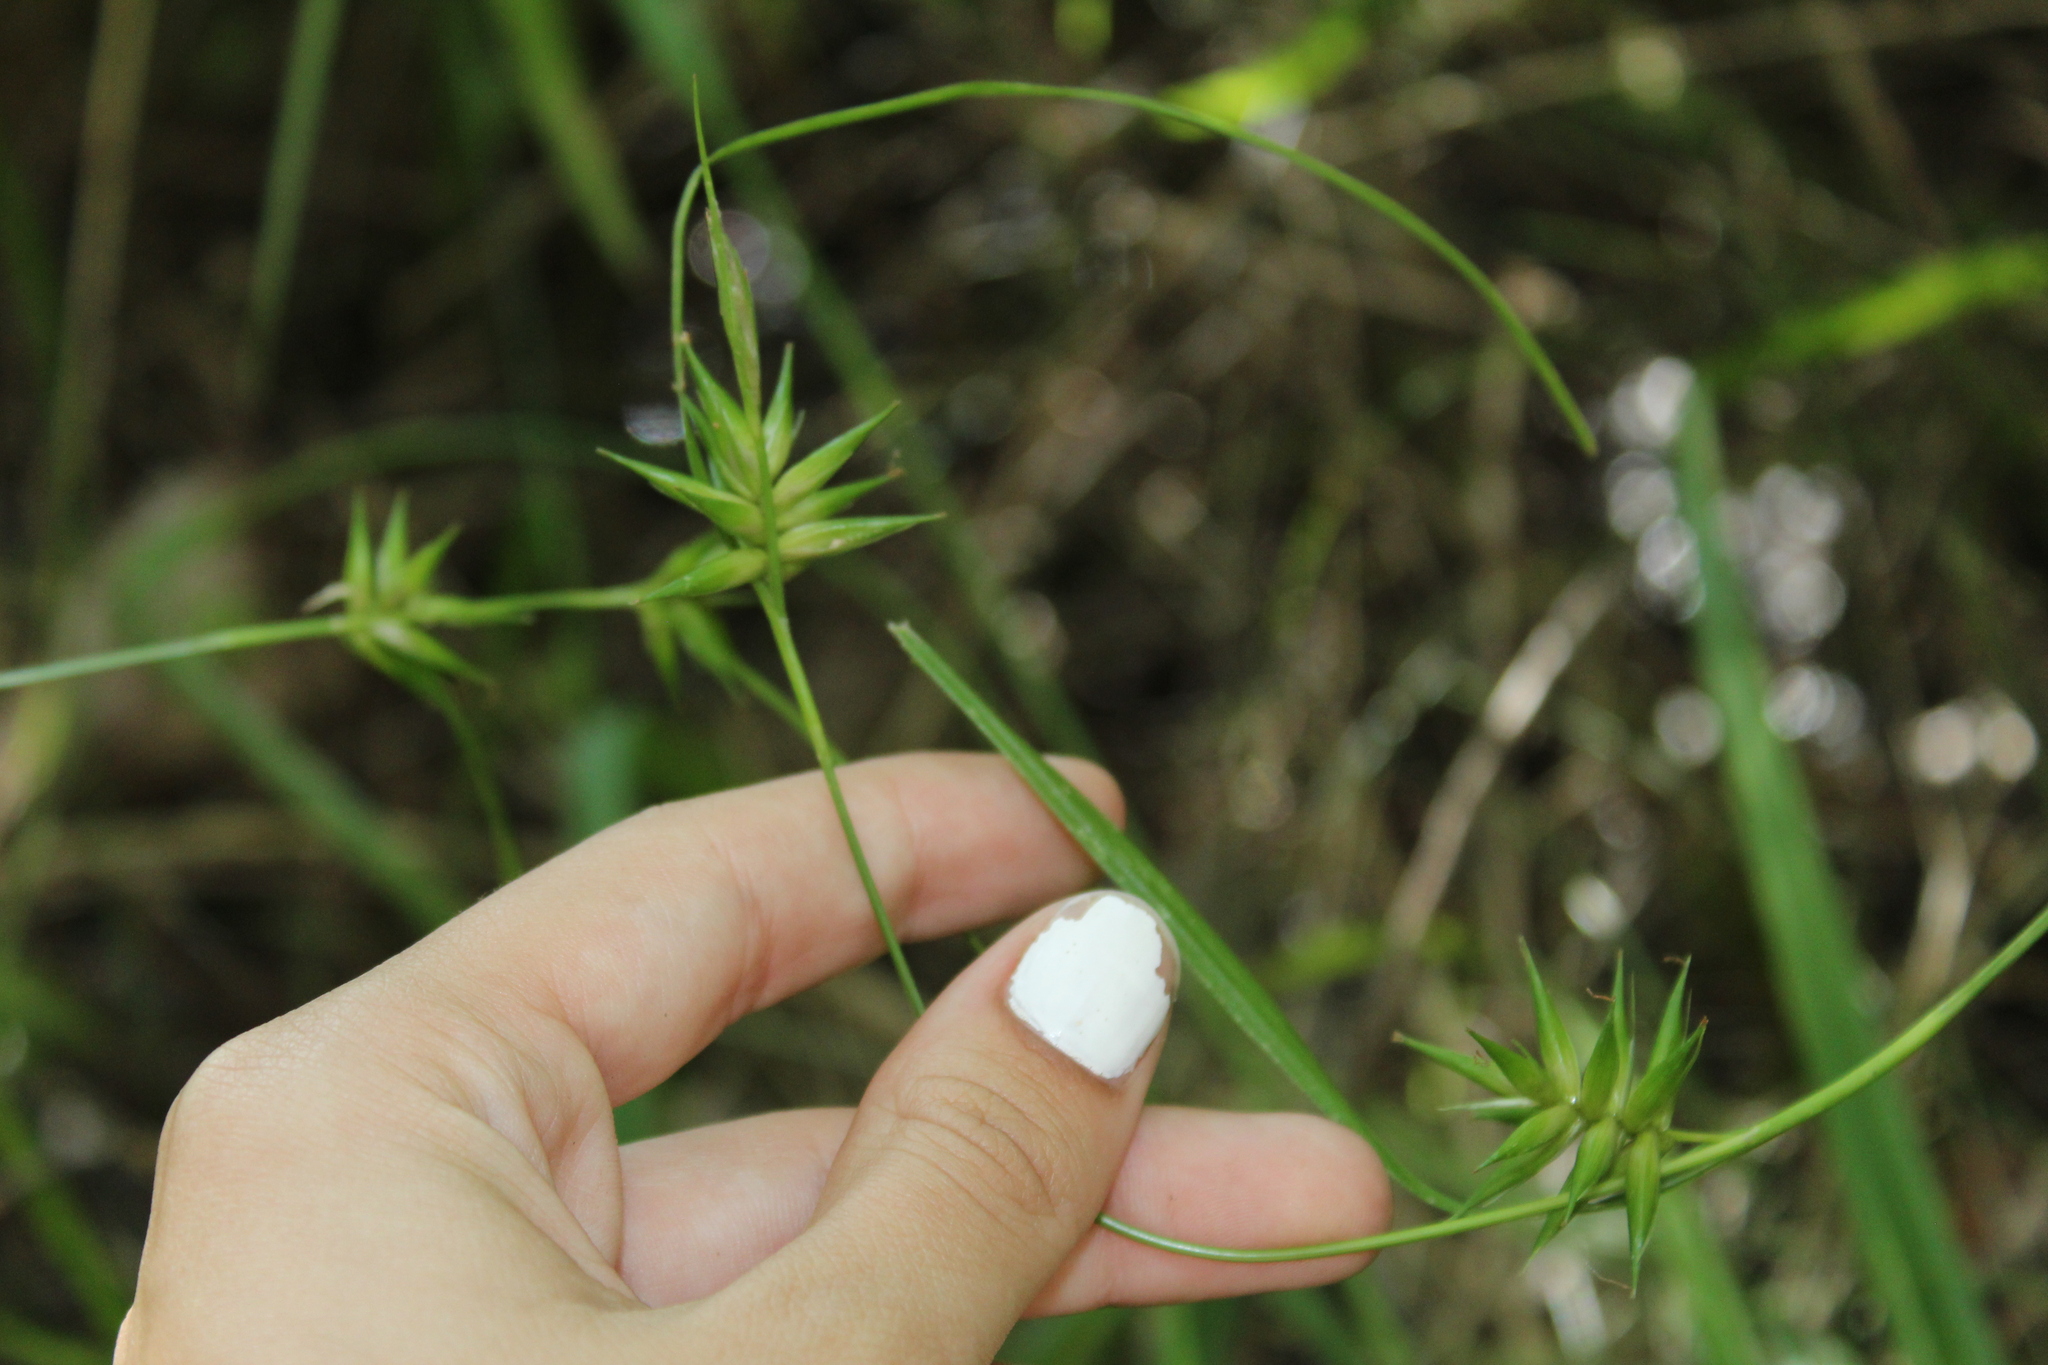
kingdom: Plantae
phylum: Tracheophyta
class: Liliopsida
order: Poales
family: Cyperaceae
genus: Carex
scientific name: Carex folliculata
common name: Northern long sedge
